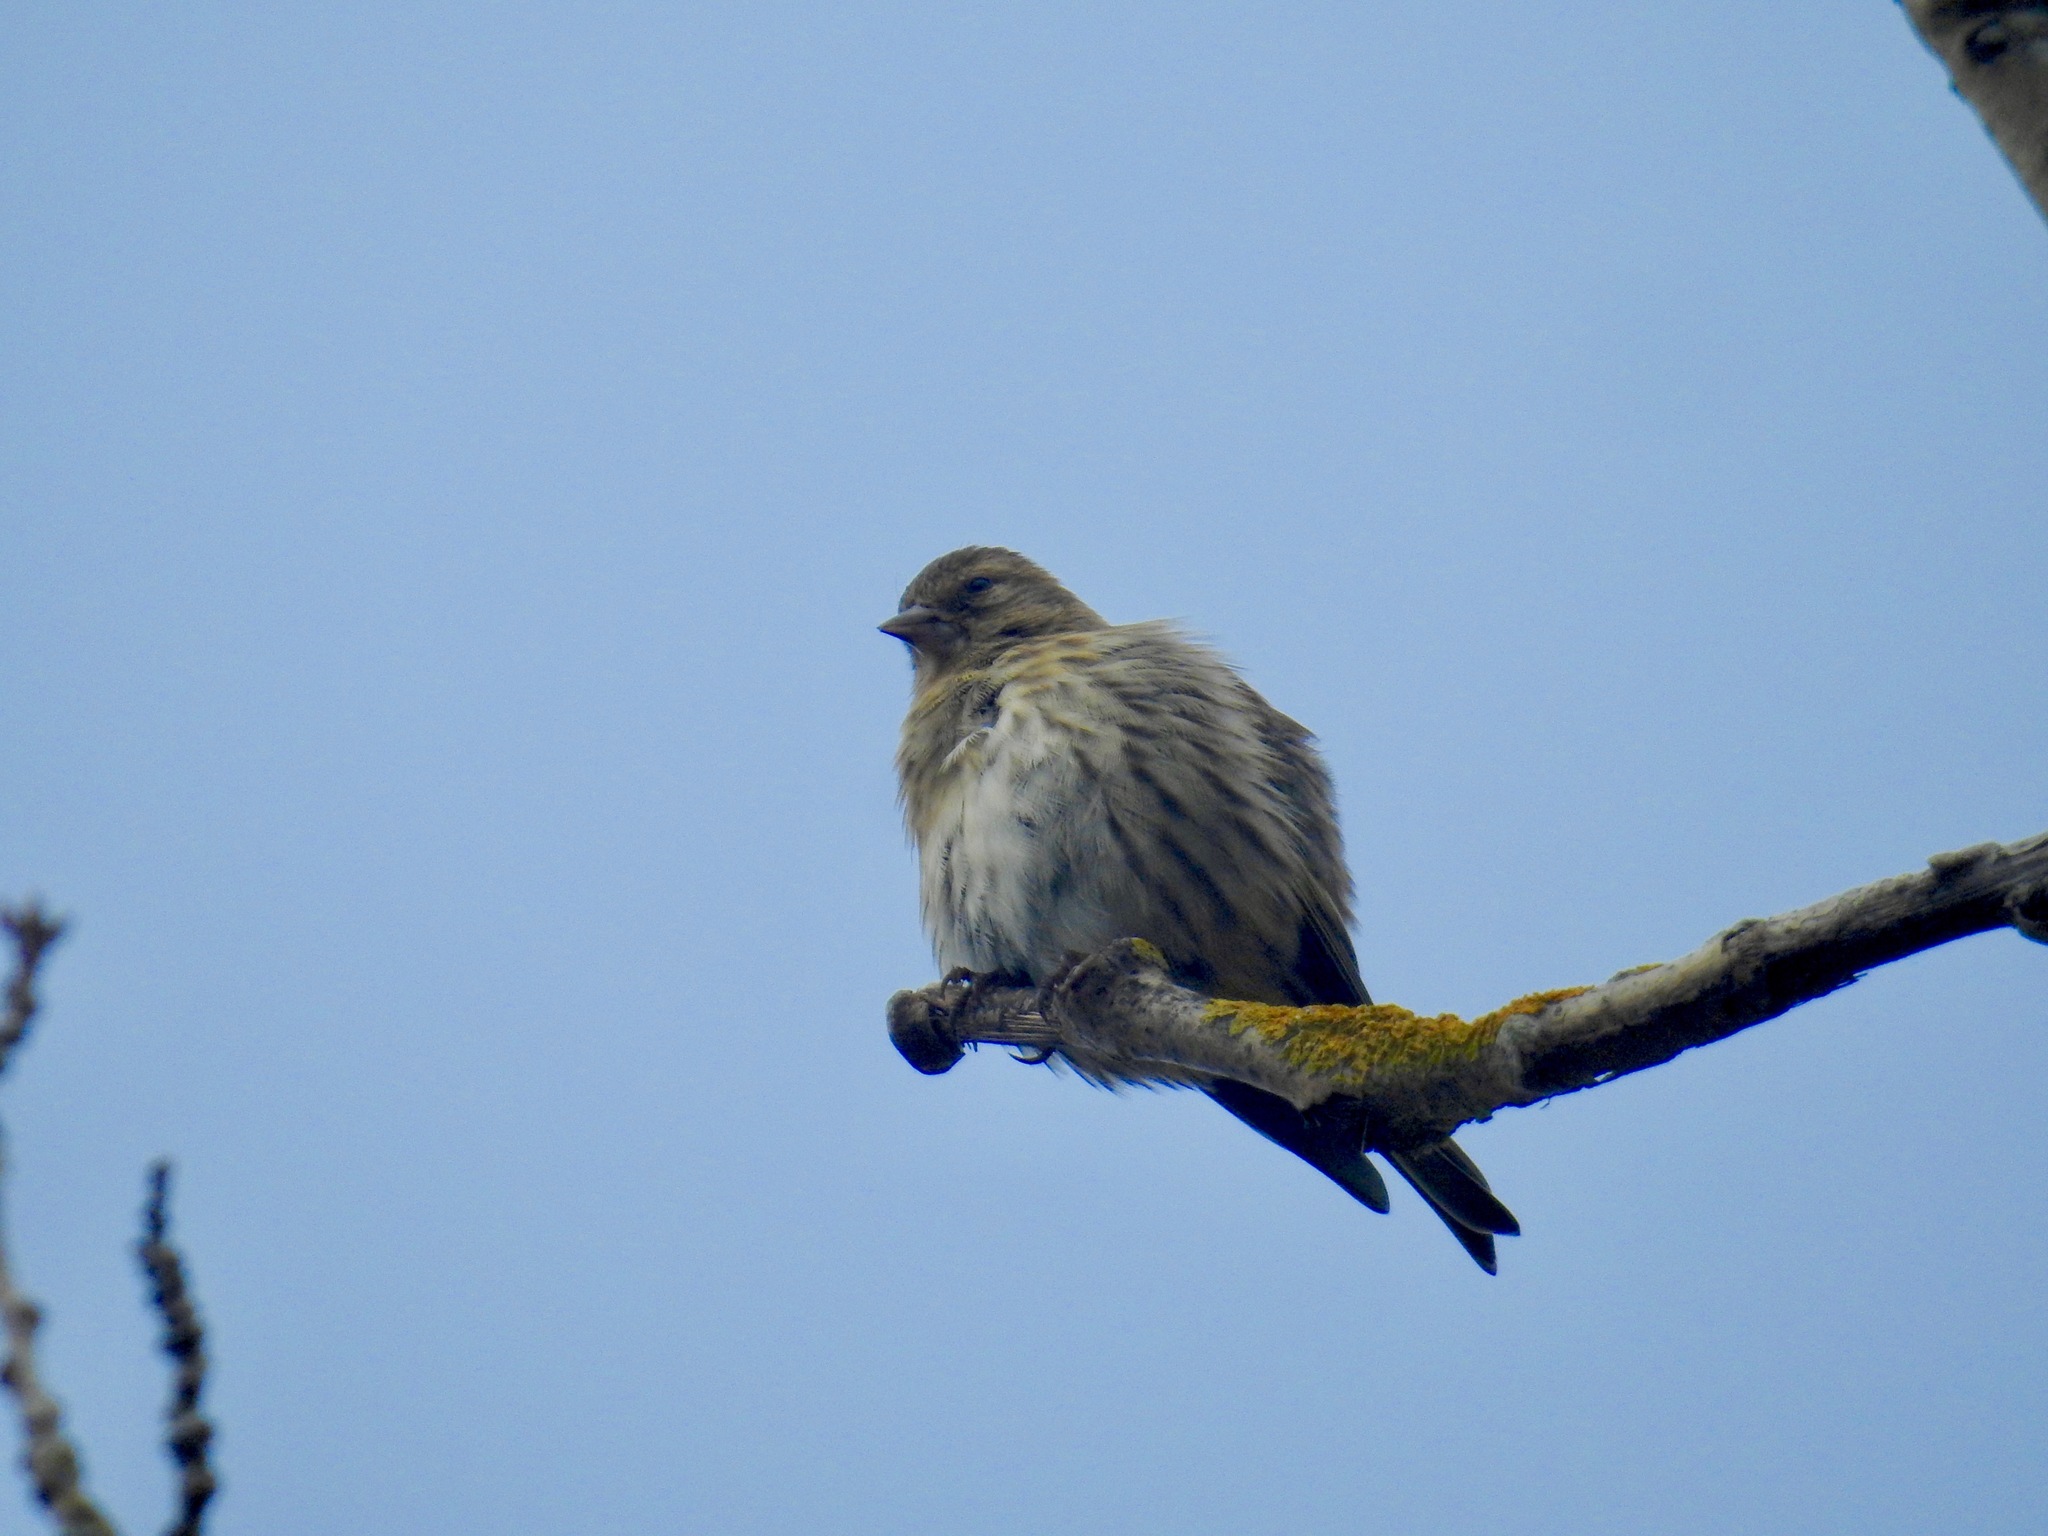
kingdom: Animalia
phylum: Chordata
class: Aves
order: Passeriformes
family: Fringillidae
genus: Spinus
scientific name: Spinus pinus
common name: Pine siskin
